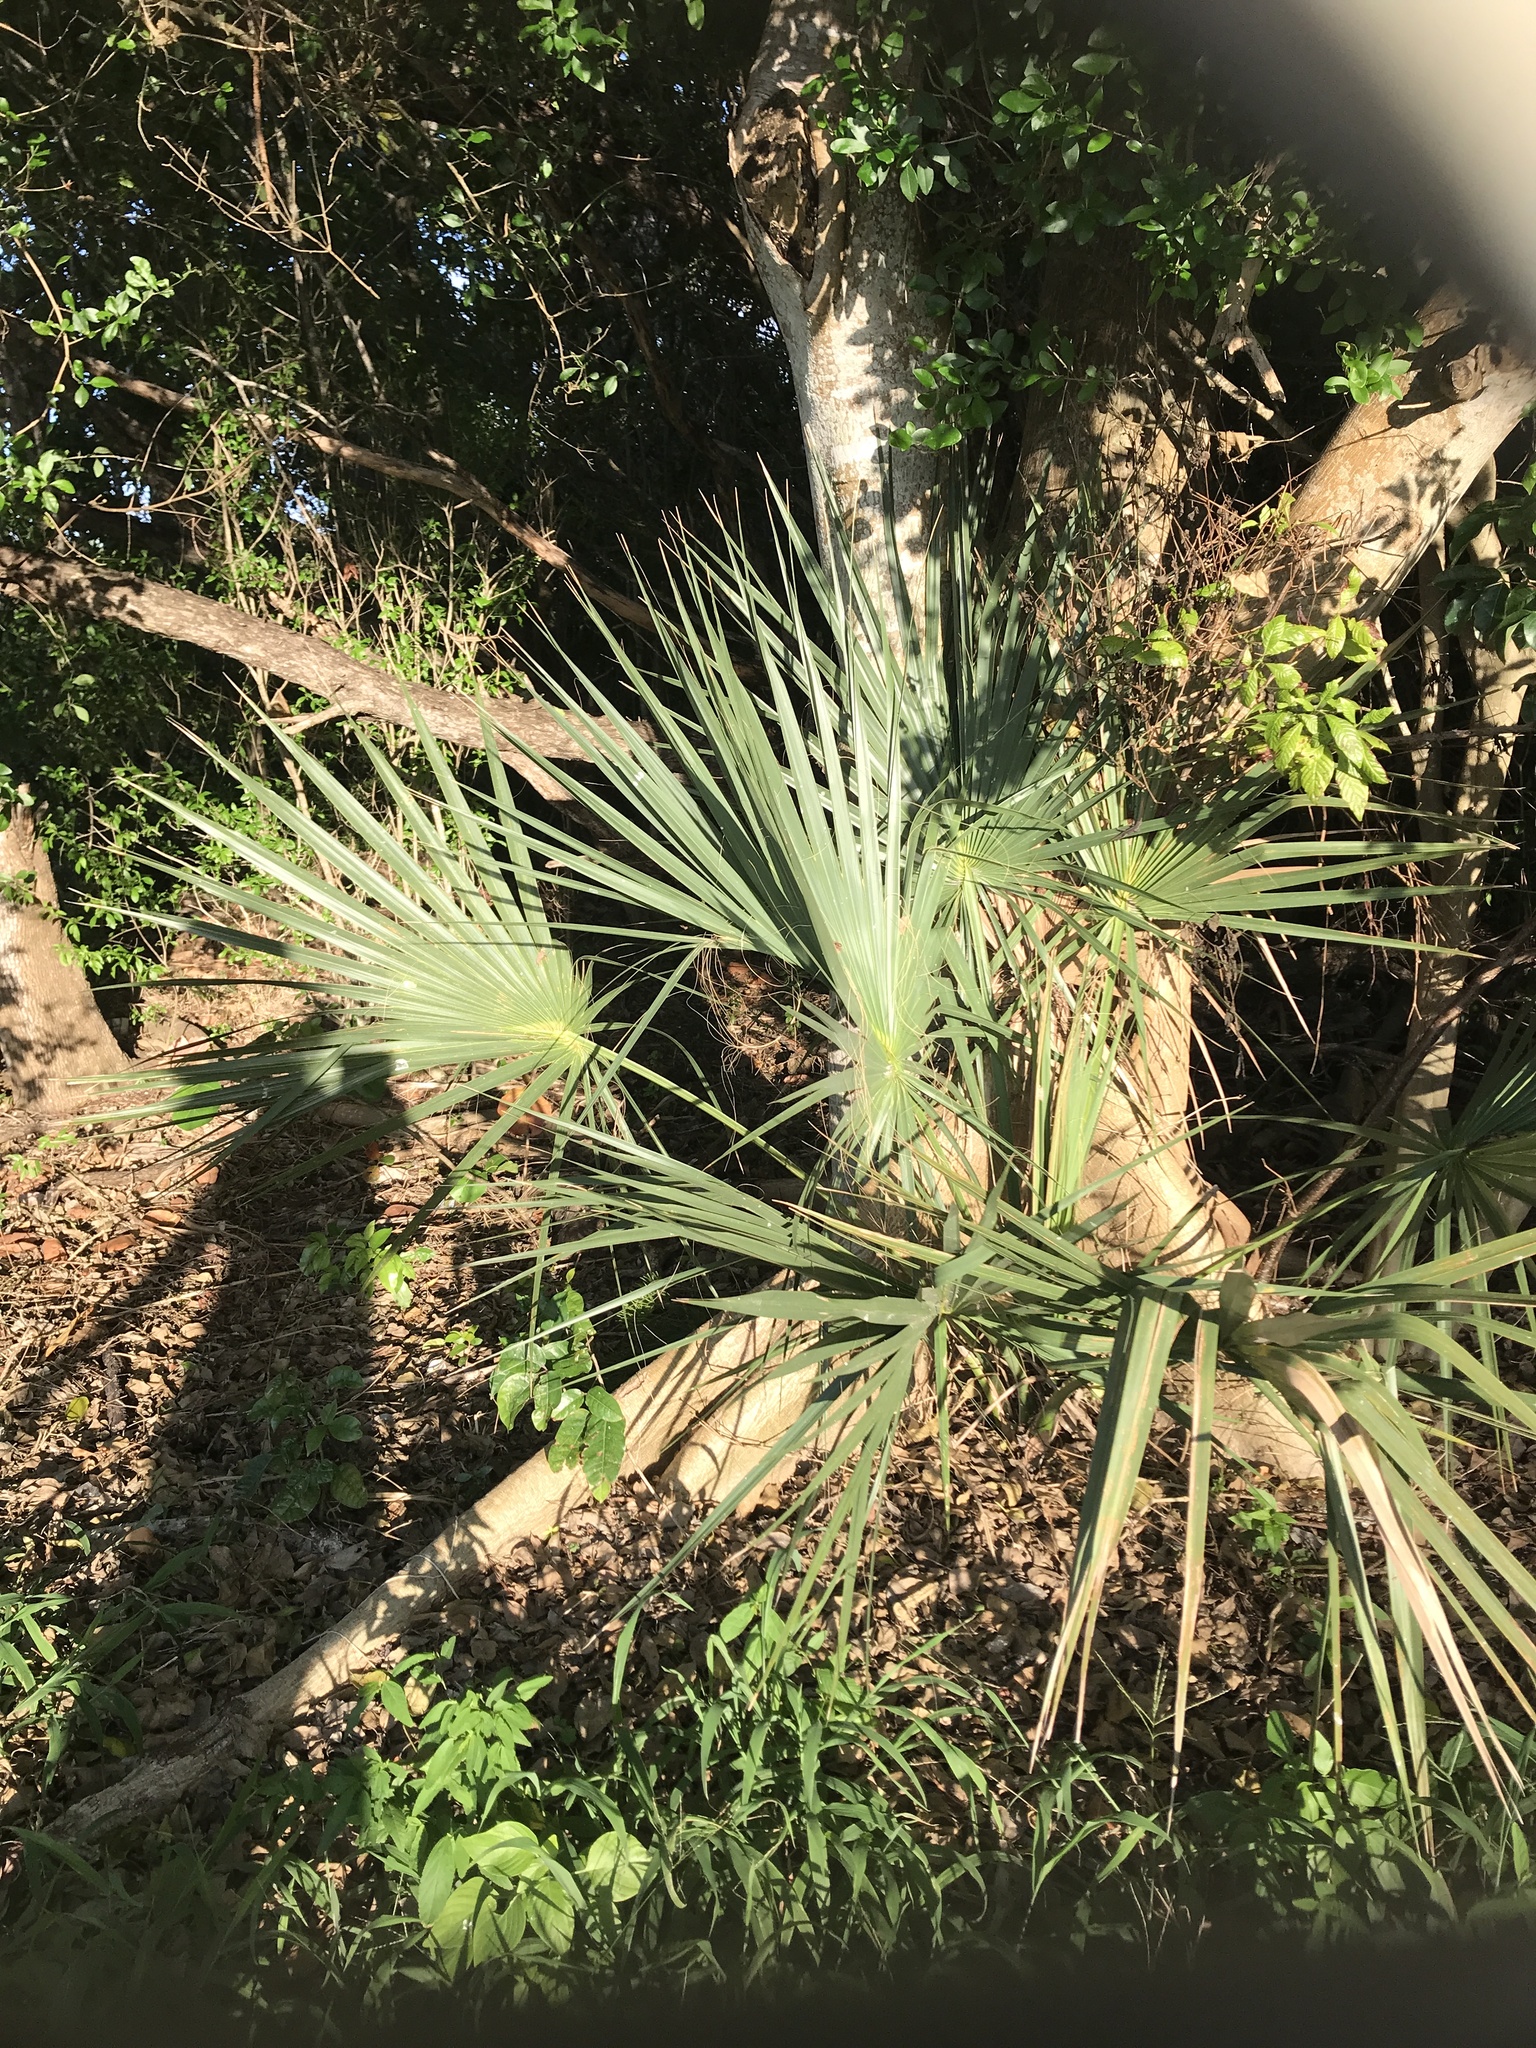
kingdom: Plantae
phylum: Tracheophyta
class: Liliopsida
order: Arecales
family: Arecaceae
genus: Sabal
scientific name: Sabal palmetto
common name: Blue palmetto
